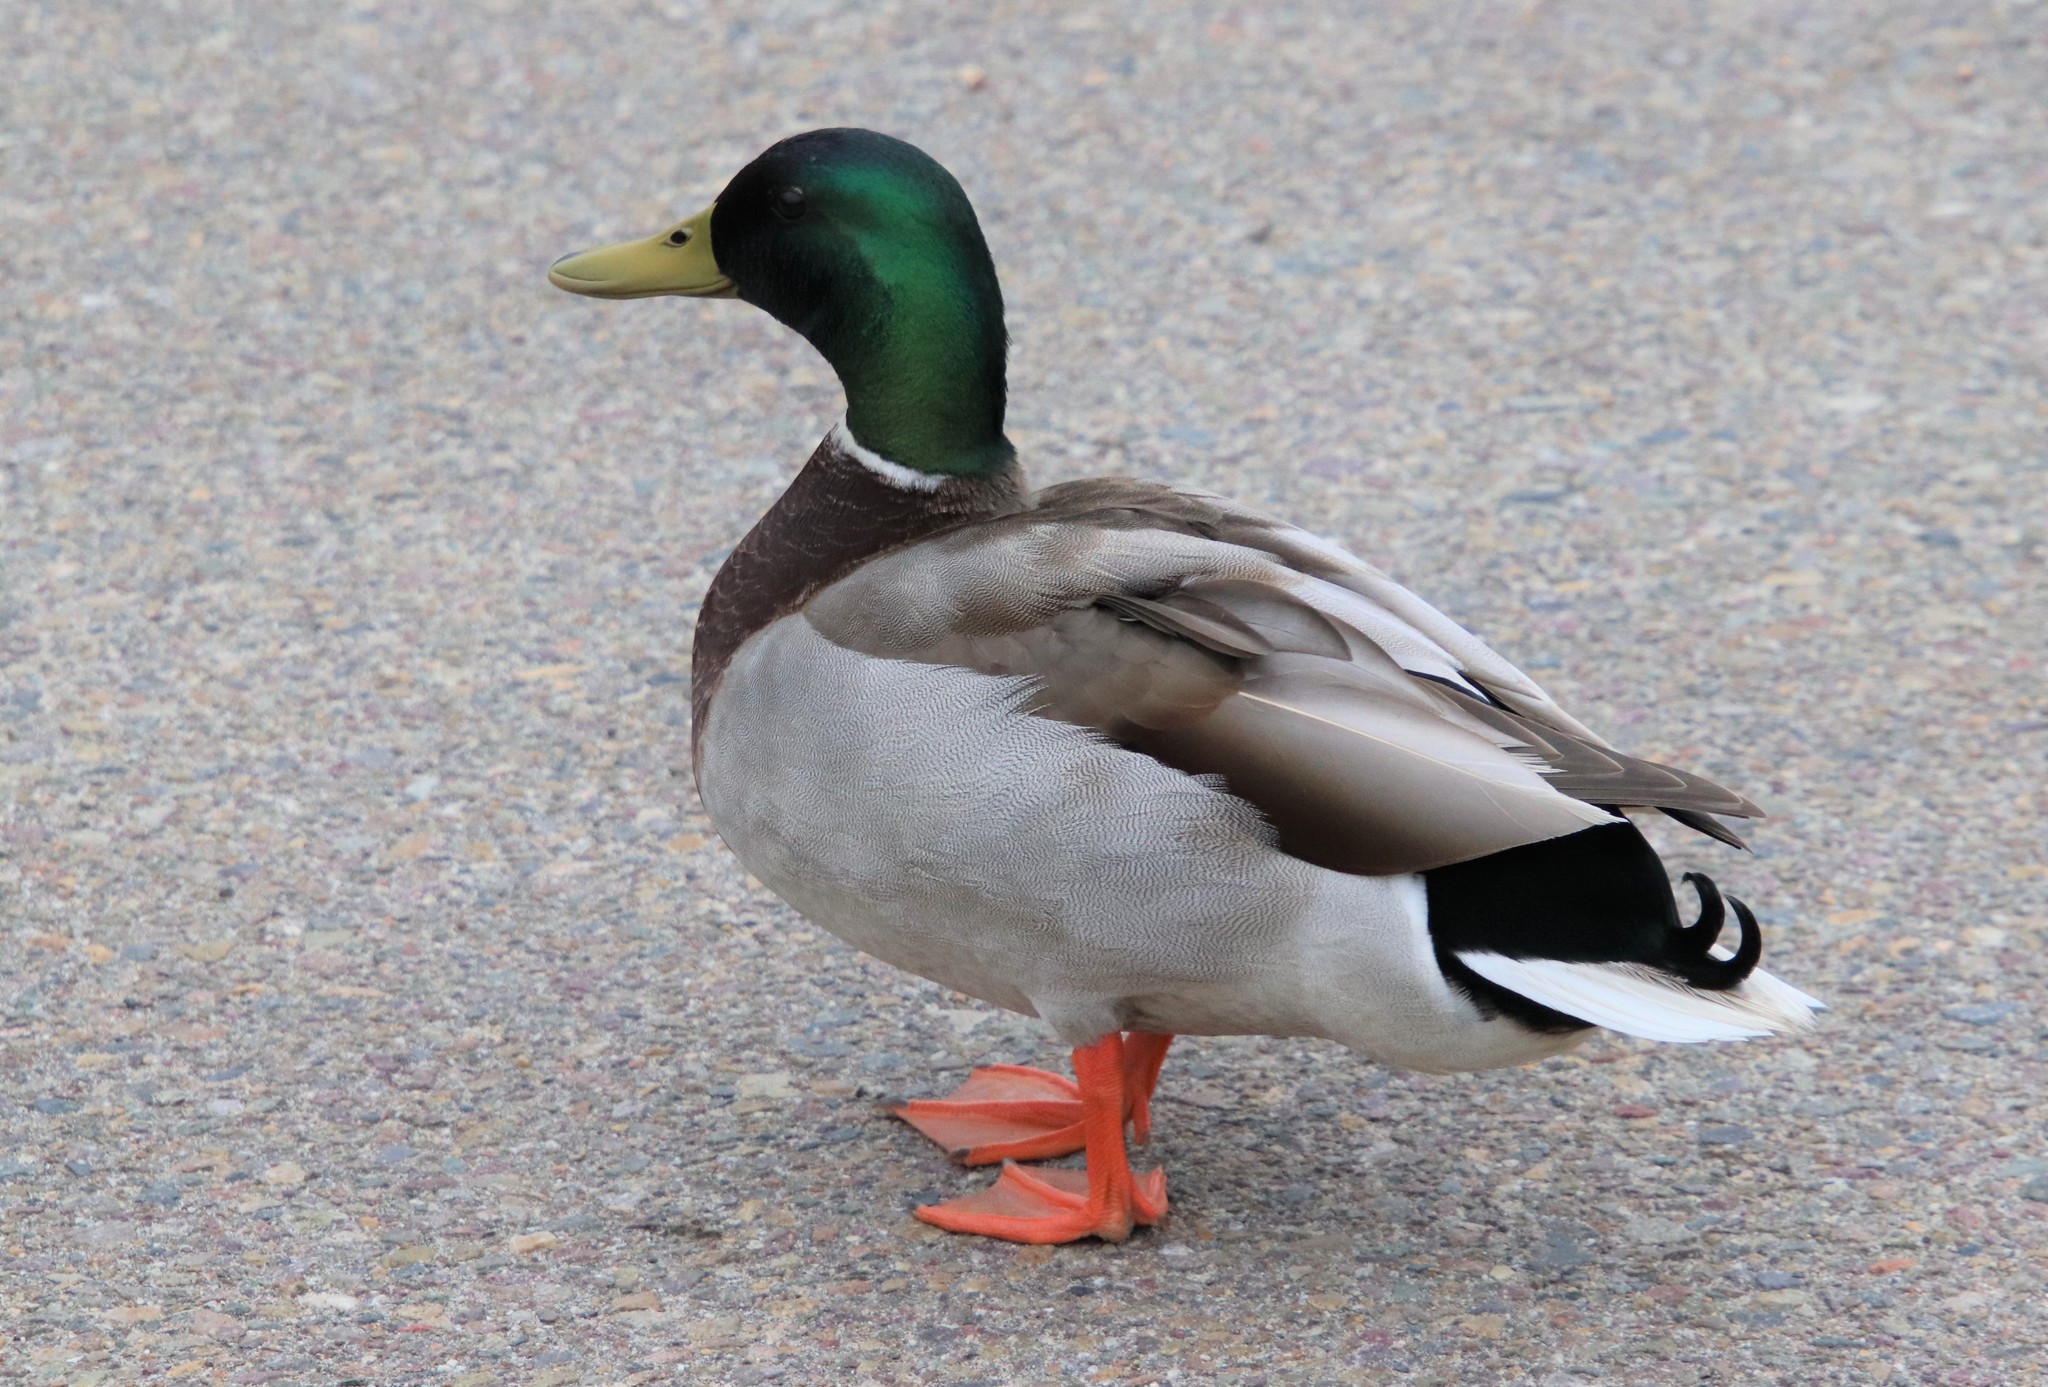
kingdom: Animalia
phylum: Chordata
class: Aves
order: Anseriformes
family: Anatidae
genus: Anas
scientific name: Anas platyrhynchos
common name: Mallard
